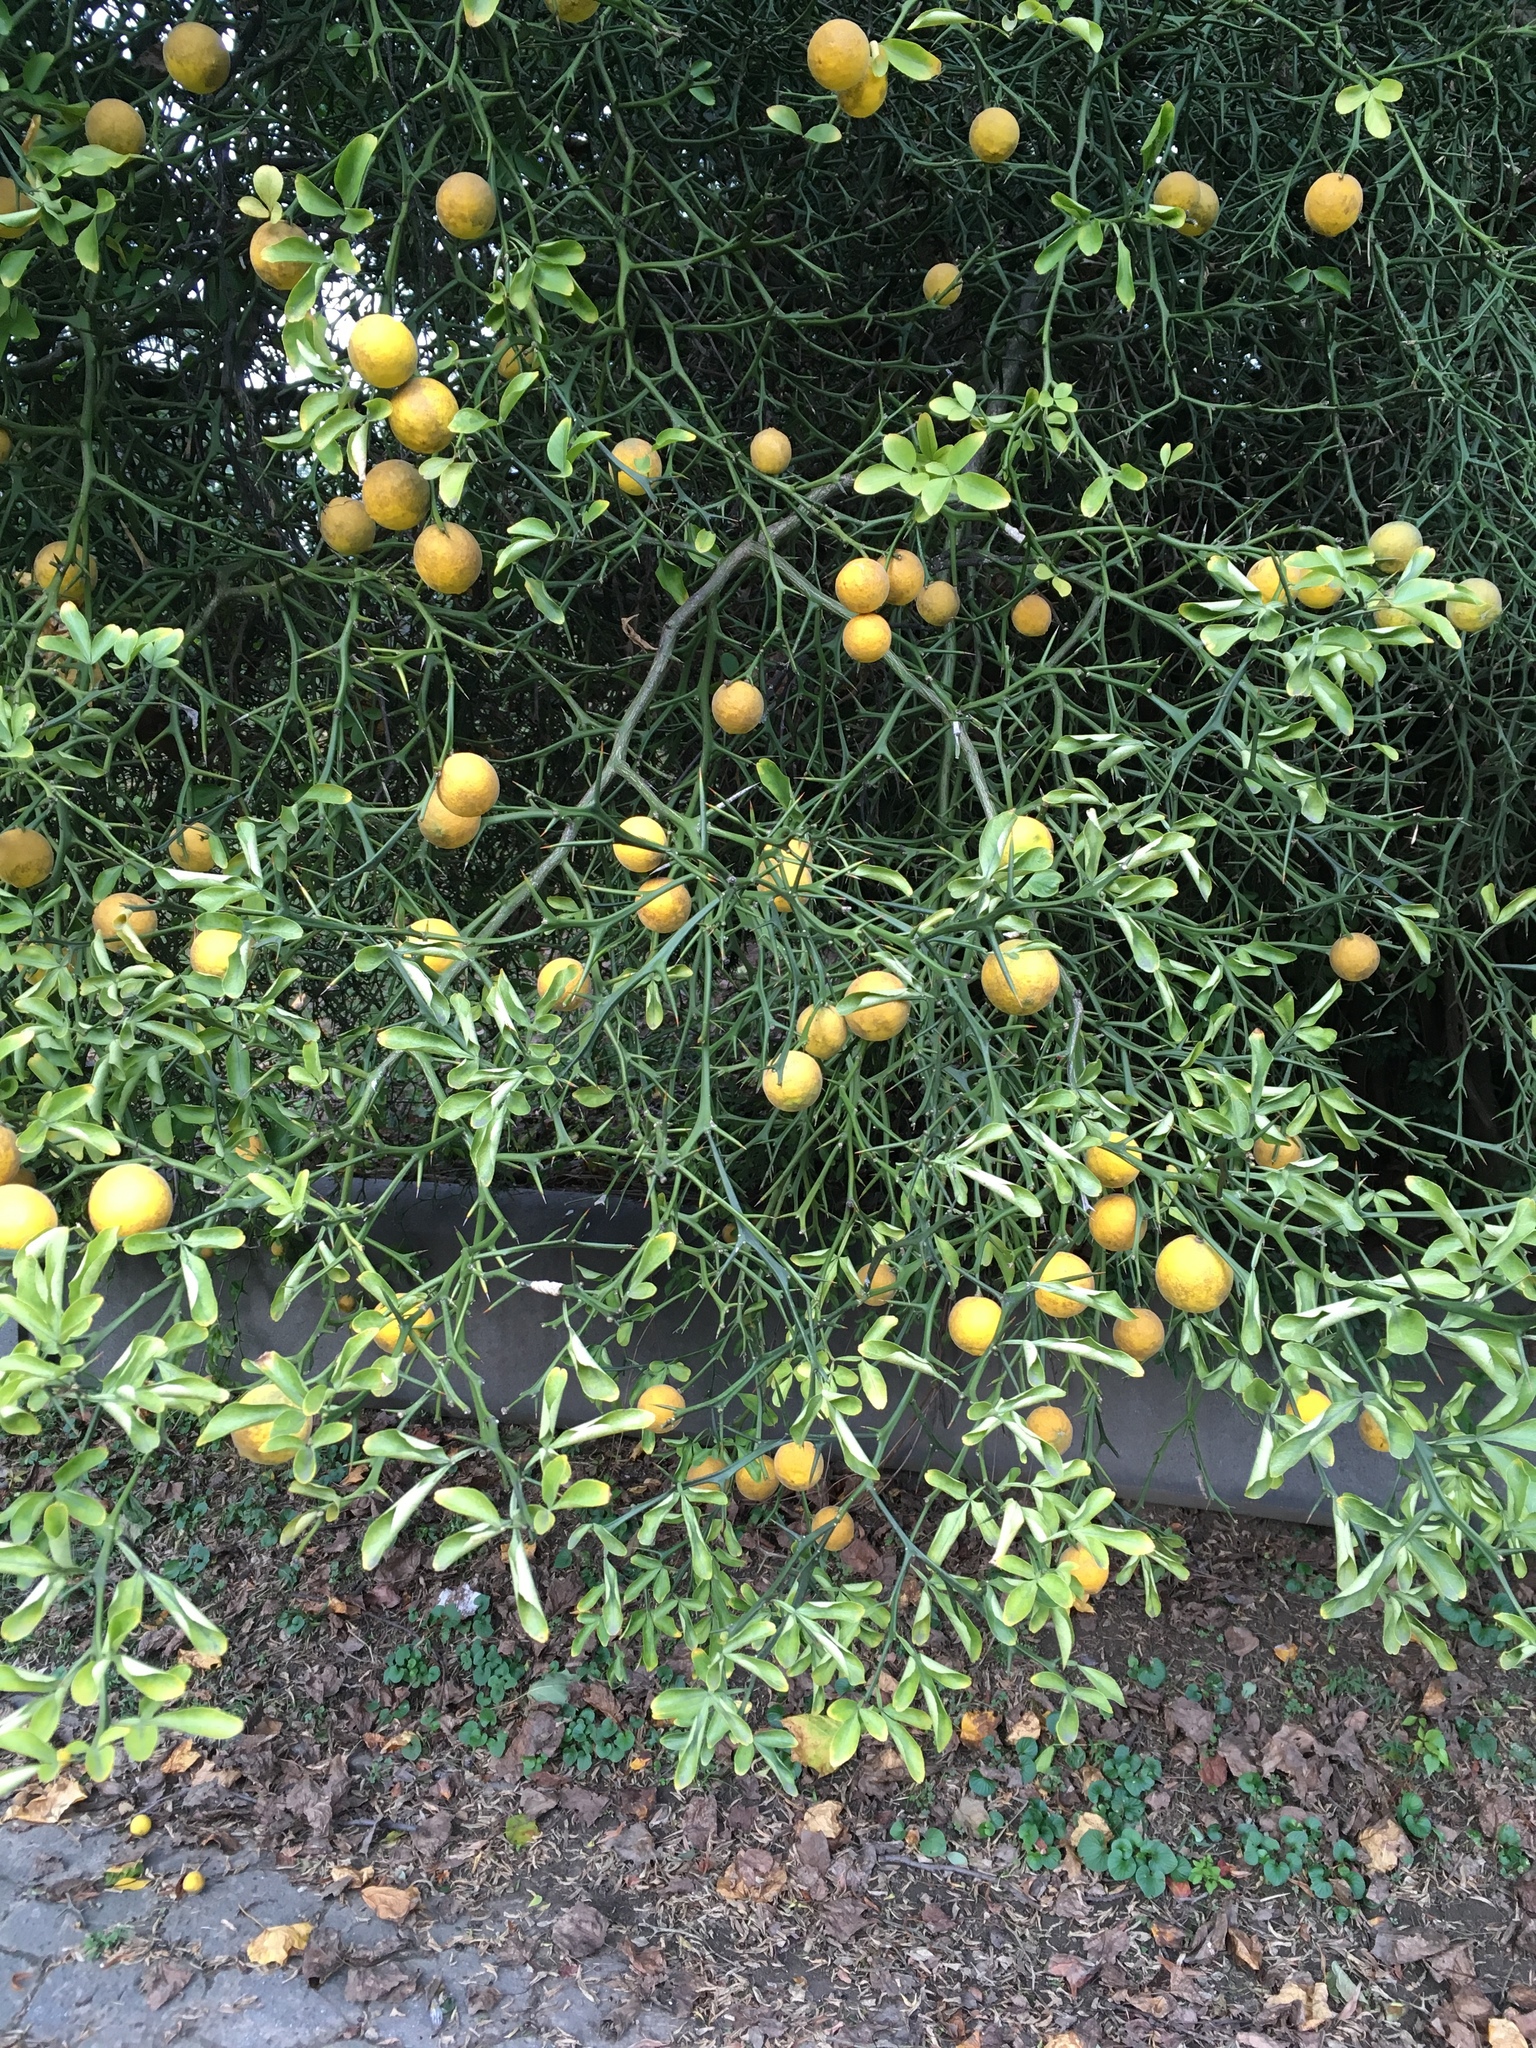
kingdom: Plantae
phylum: Tracheophyta
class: Magnoliopsida
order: Sapindales
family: Rutaceae
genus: Citrus
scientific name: Citrus trifoliata
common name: Japanese bitter-orange
